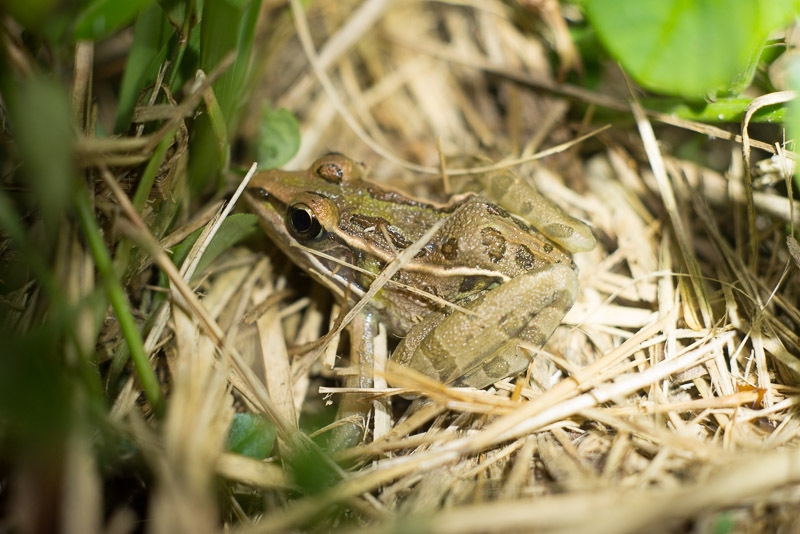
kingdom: Animalia
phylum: Chordata
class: Amphibia
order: Anura
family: Ranidae
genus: Lithobates
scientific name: Lithobates sphenocephalus
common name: Southern leopard frog
